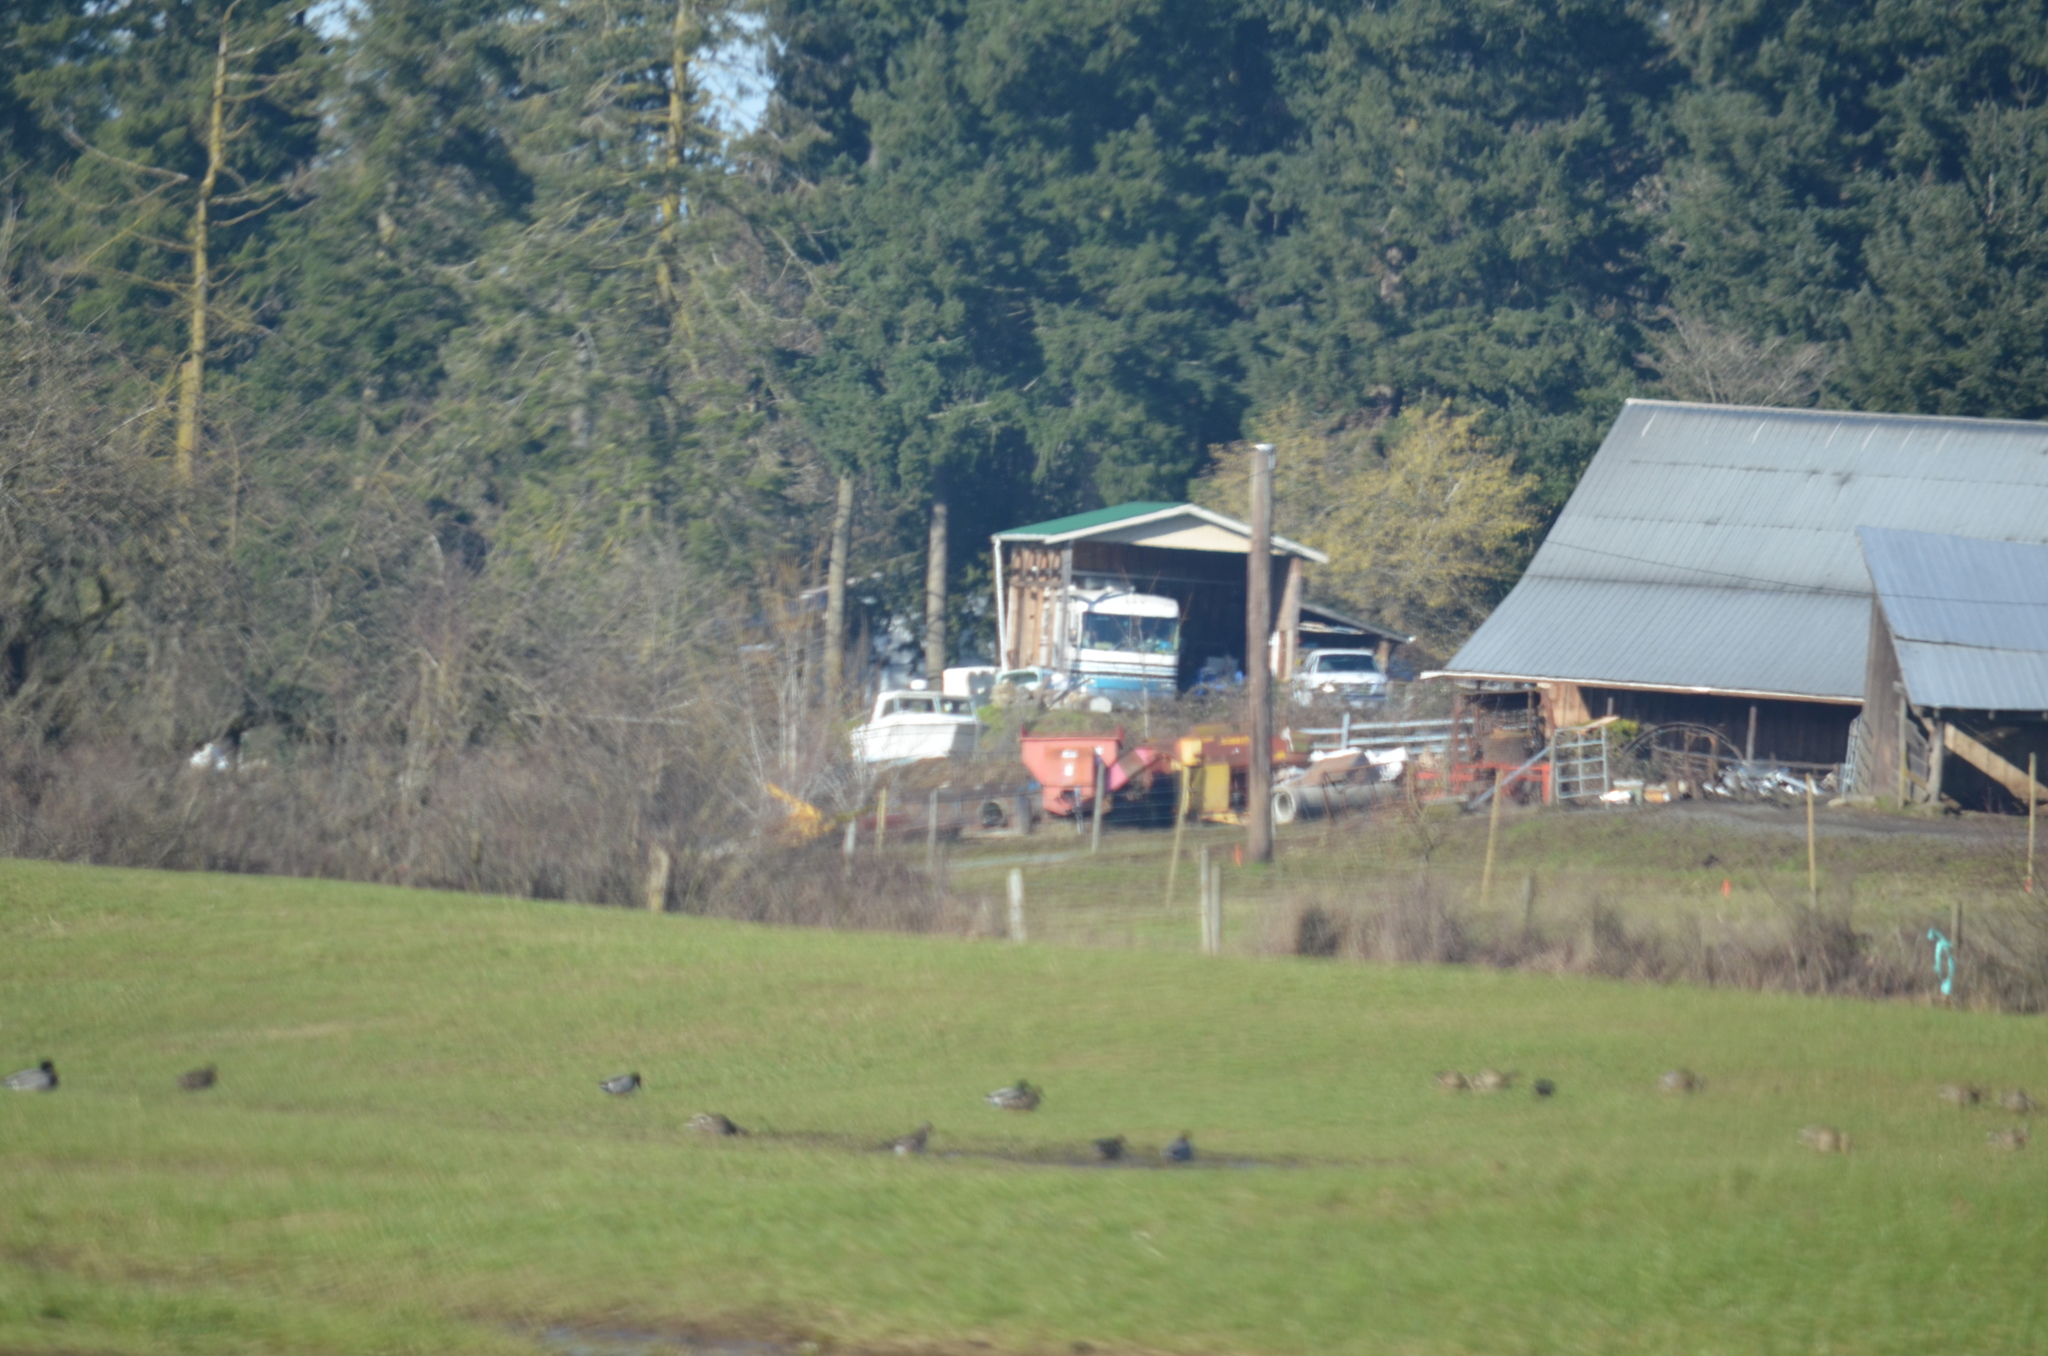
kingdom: Animalia
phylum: Chordata
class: Aves
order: Anseriformes
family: Anatidae
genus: Anas
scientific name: Anas platyrhynchos
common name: Mallard
